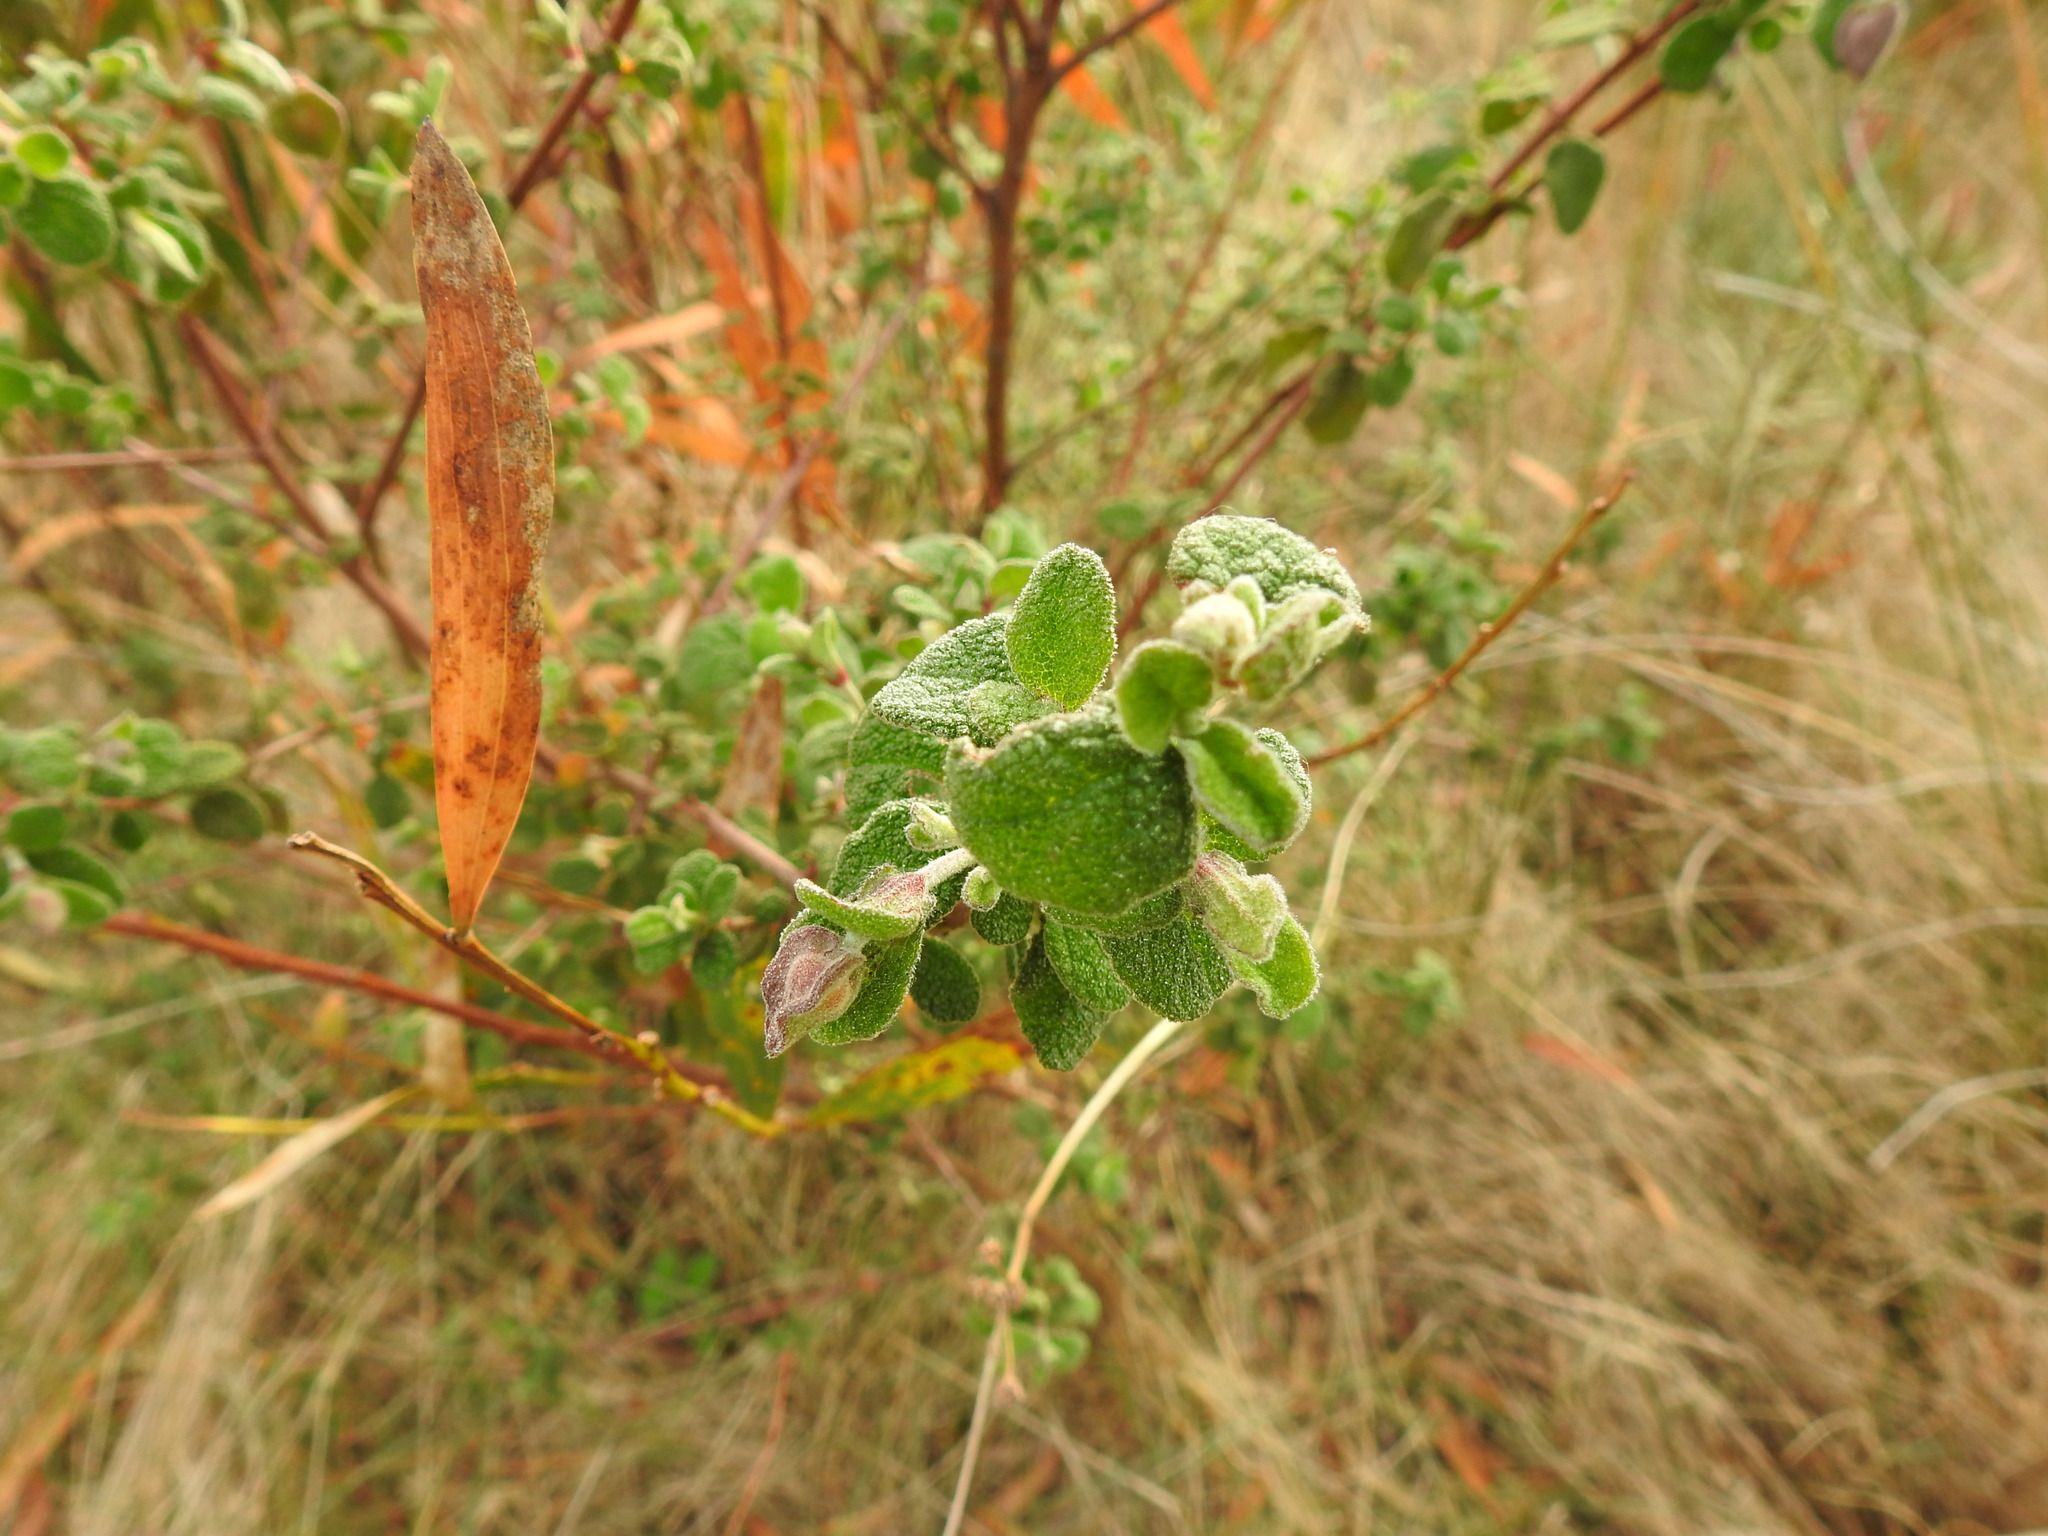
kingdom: Plantae
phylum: Tracheophyta
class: Magnoliopsida
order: Malvales
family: Cistaceae
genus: Cistus
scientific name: Cistus salviifolius
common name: Salvia cistus
